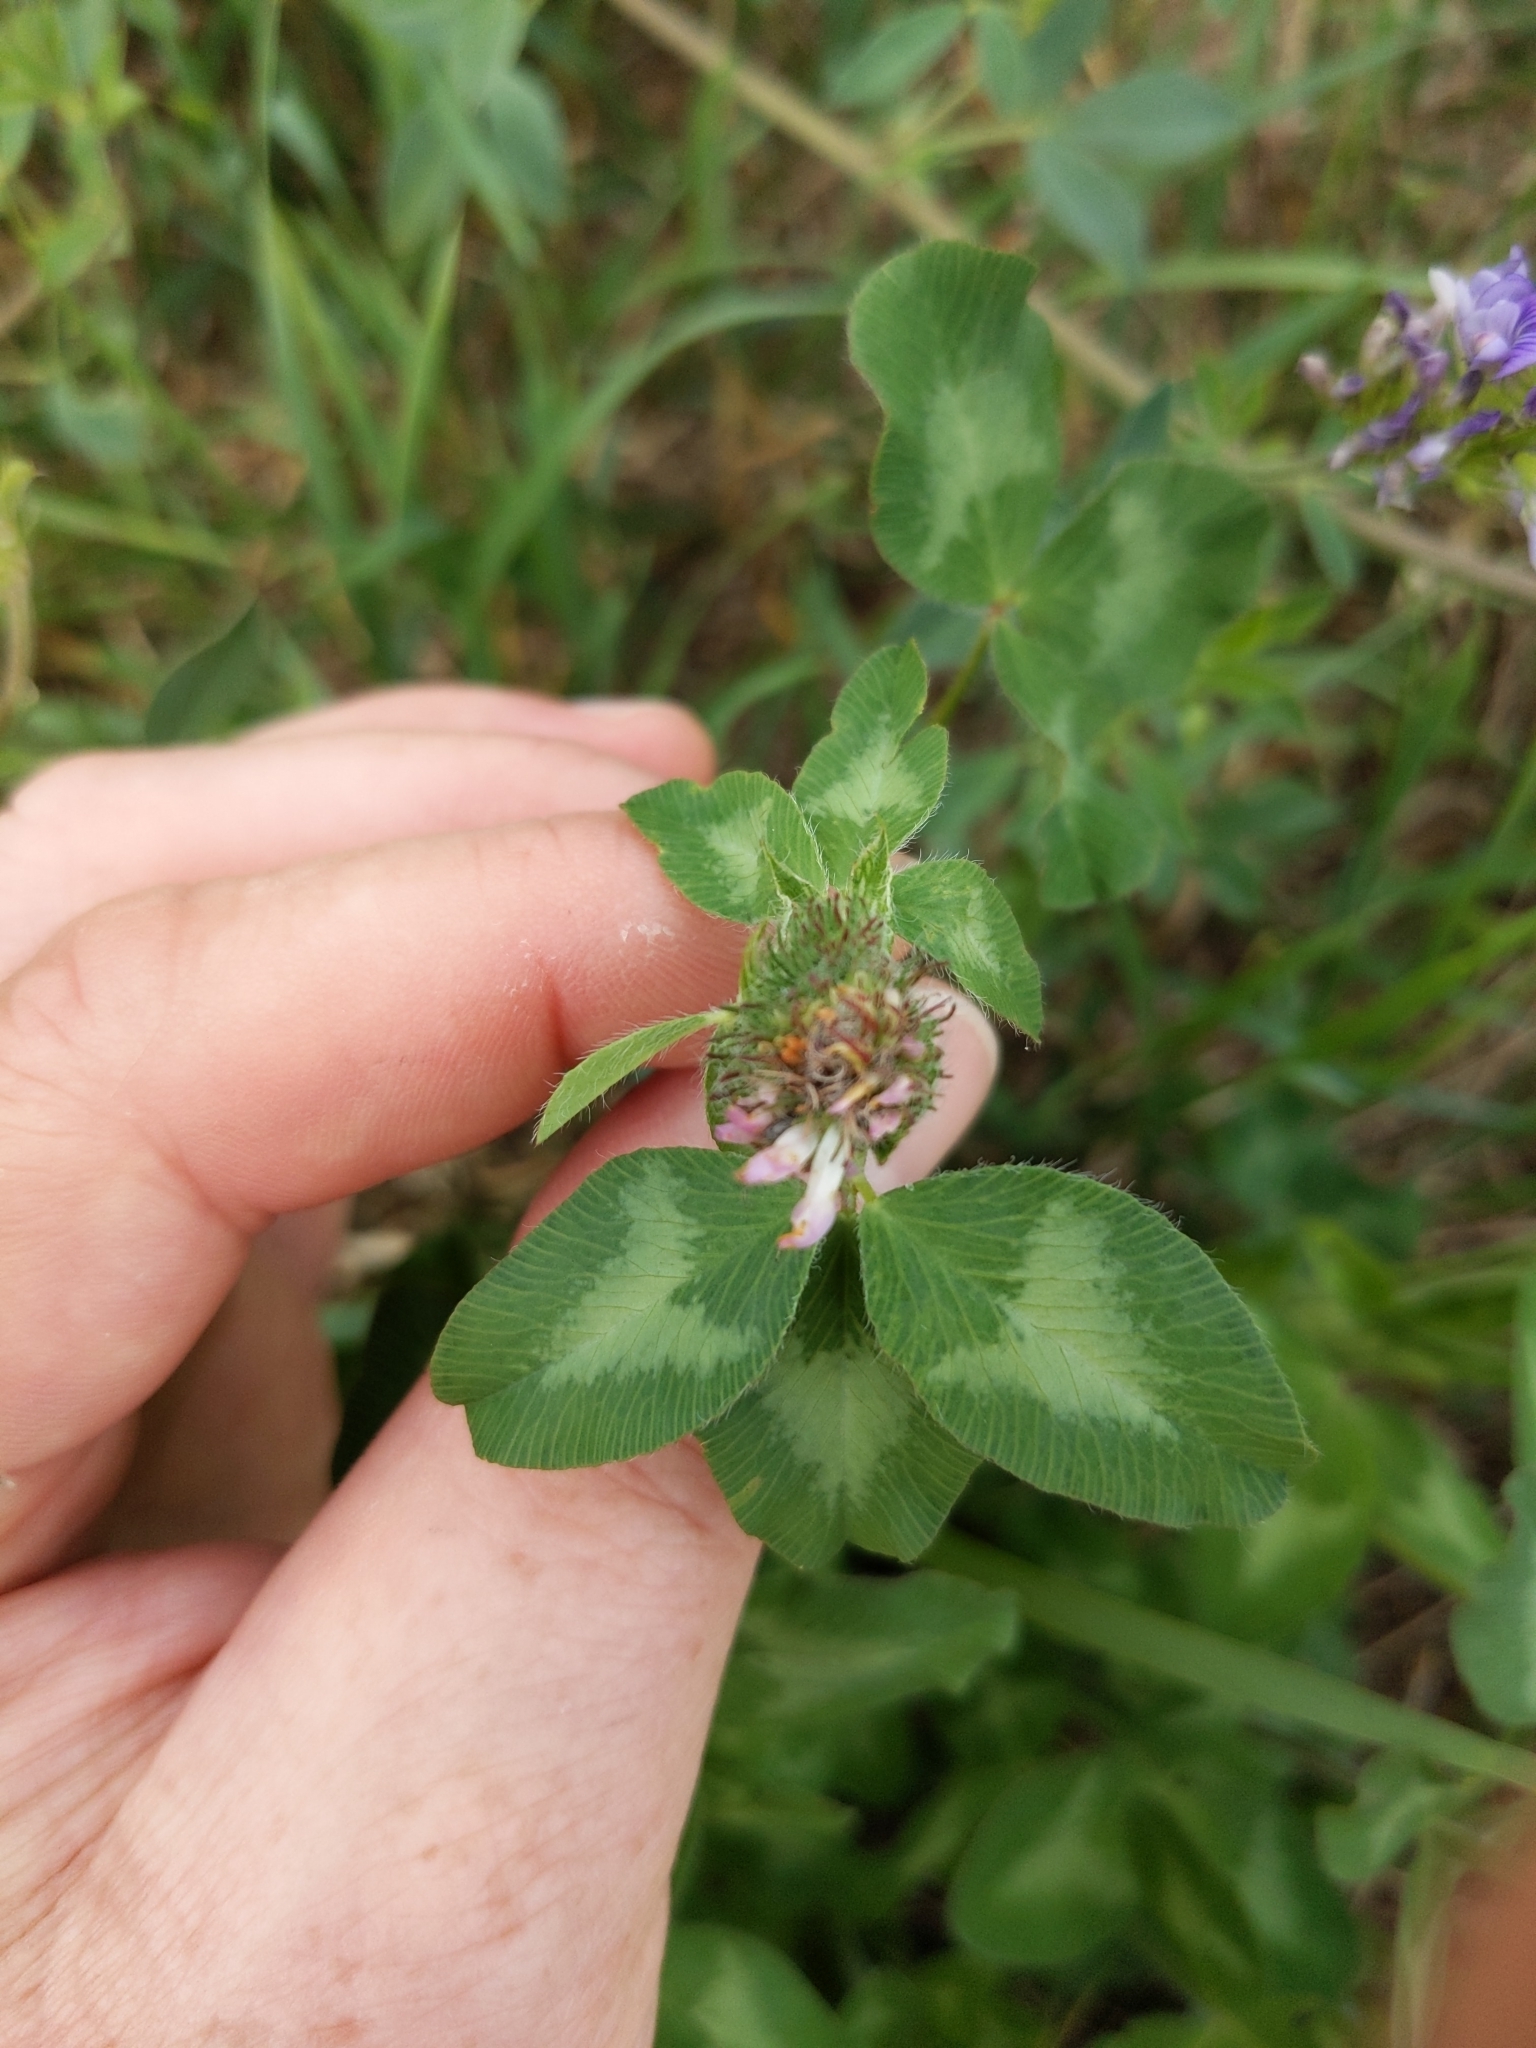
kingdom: Plantae
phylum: Tracheophyta
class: Magnoliopsida
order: Fabales
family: Fabaceae
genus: Trifolium
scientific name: Trifolium pratense
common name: Red clover
